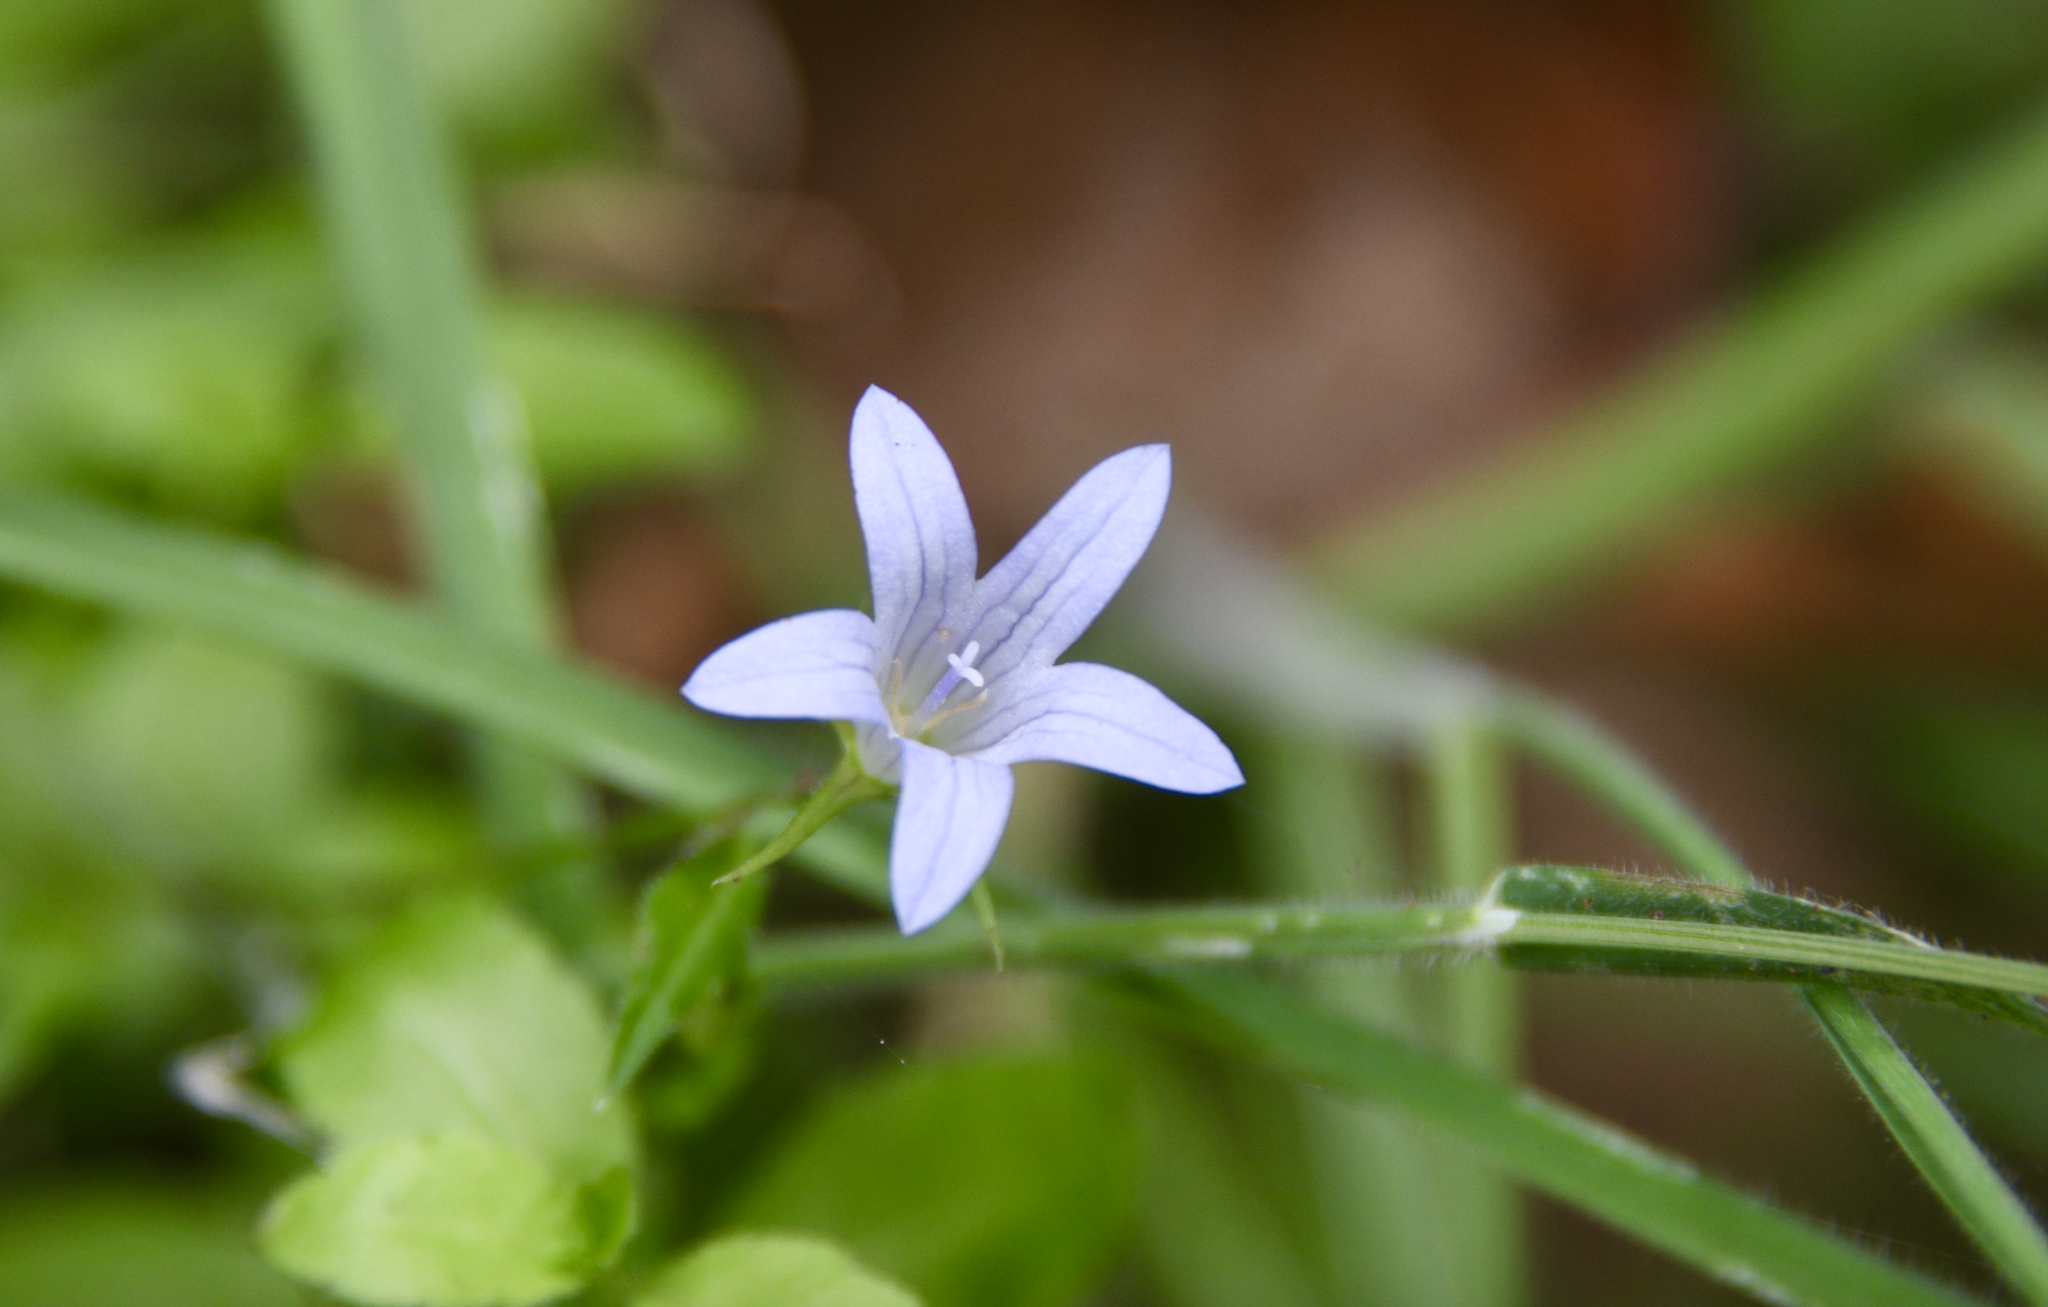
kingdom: Plantae
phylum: Tracheophyta
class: Magnoliopsida
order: Asterales
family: Campanulaceae
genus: Eastwoodiella
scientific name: Eastwoodiella californica
